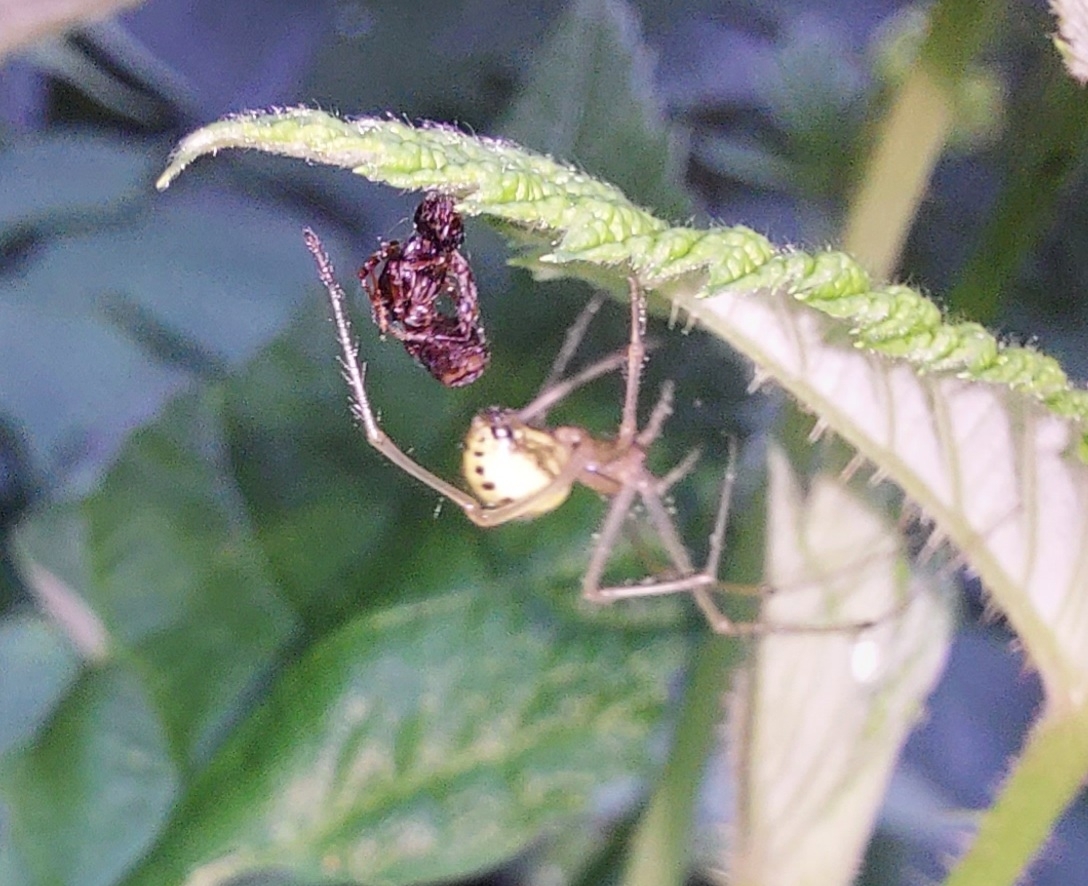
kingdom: Animalia
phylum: Arthropoda
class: Arachnida
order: Araneae
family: Theridiidae
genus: Enoplognatha
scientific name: Enoplognatha ovata
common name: Common candy-striped spider
